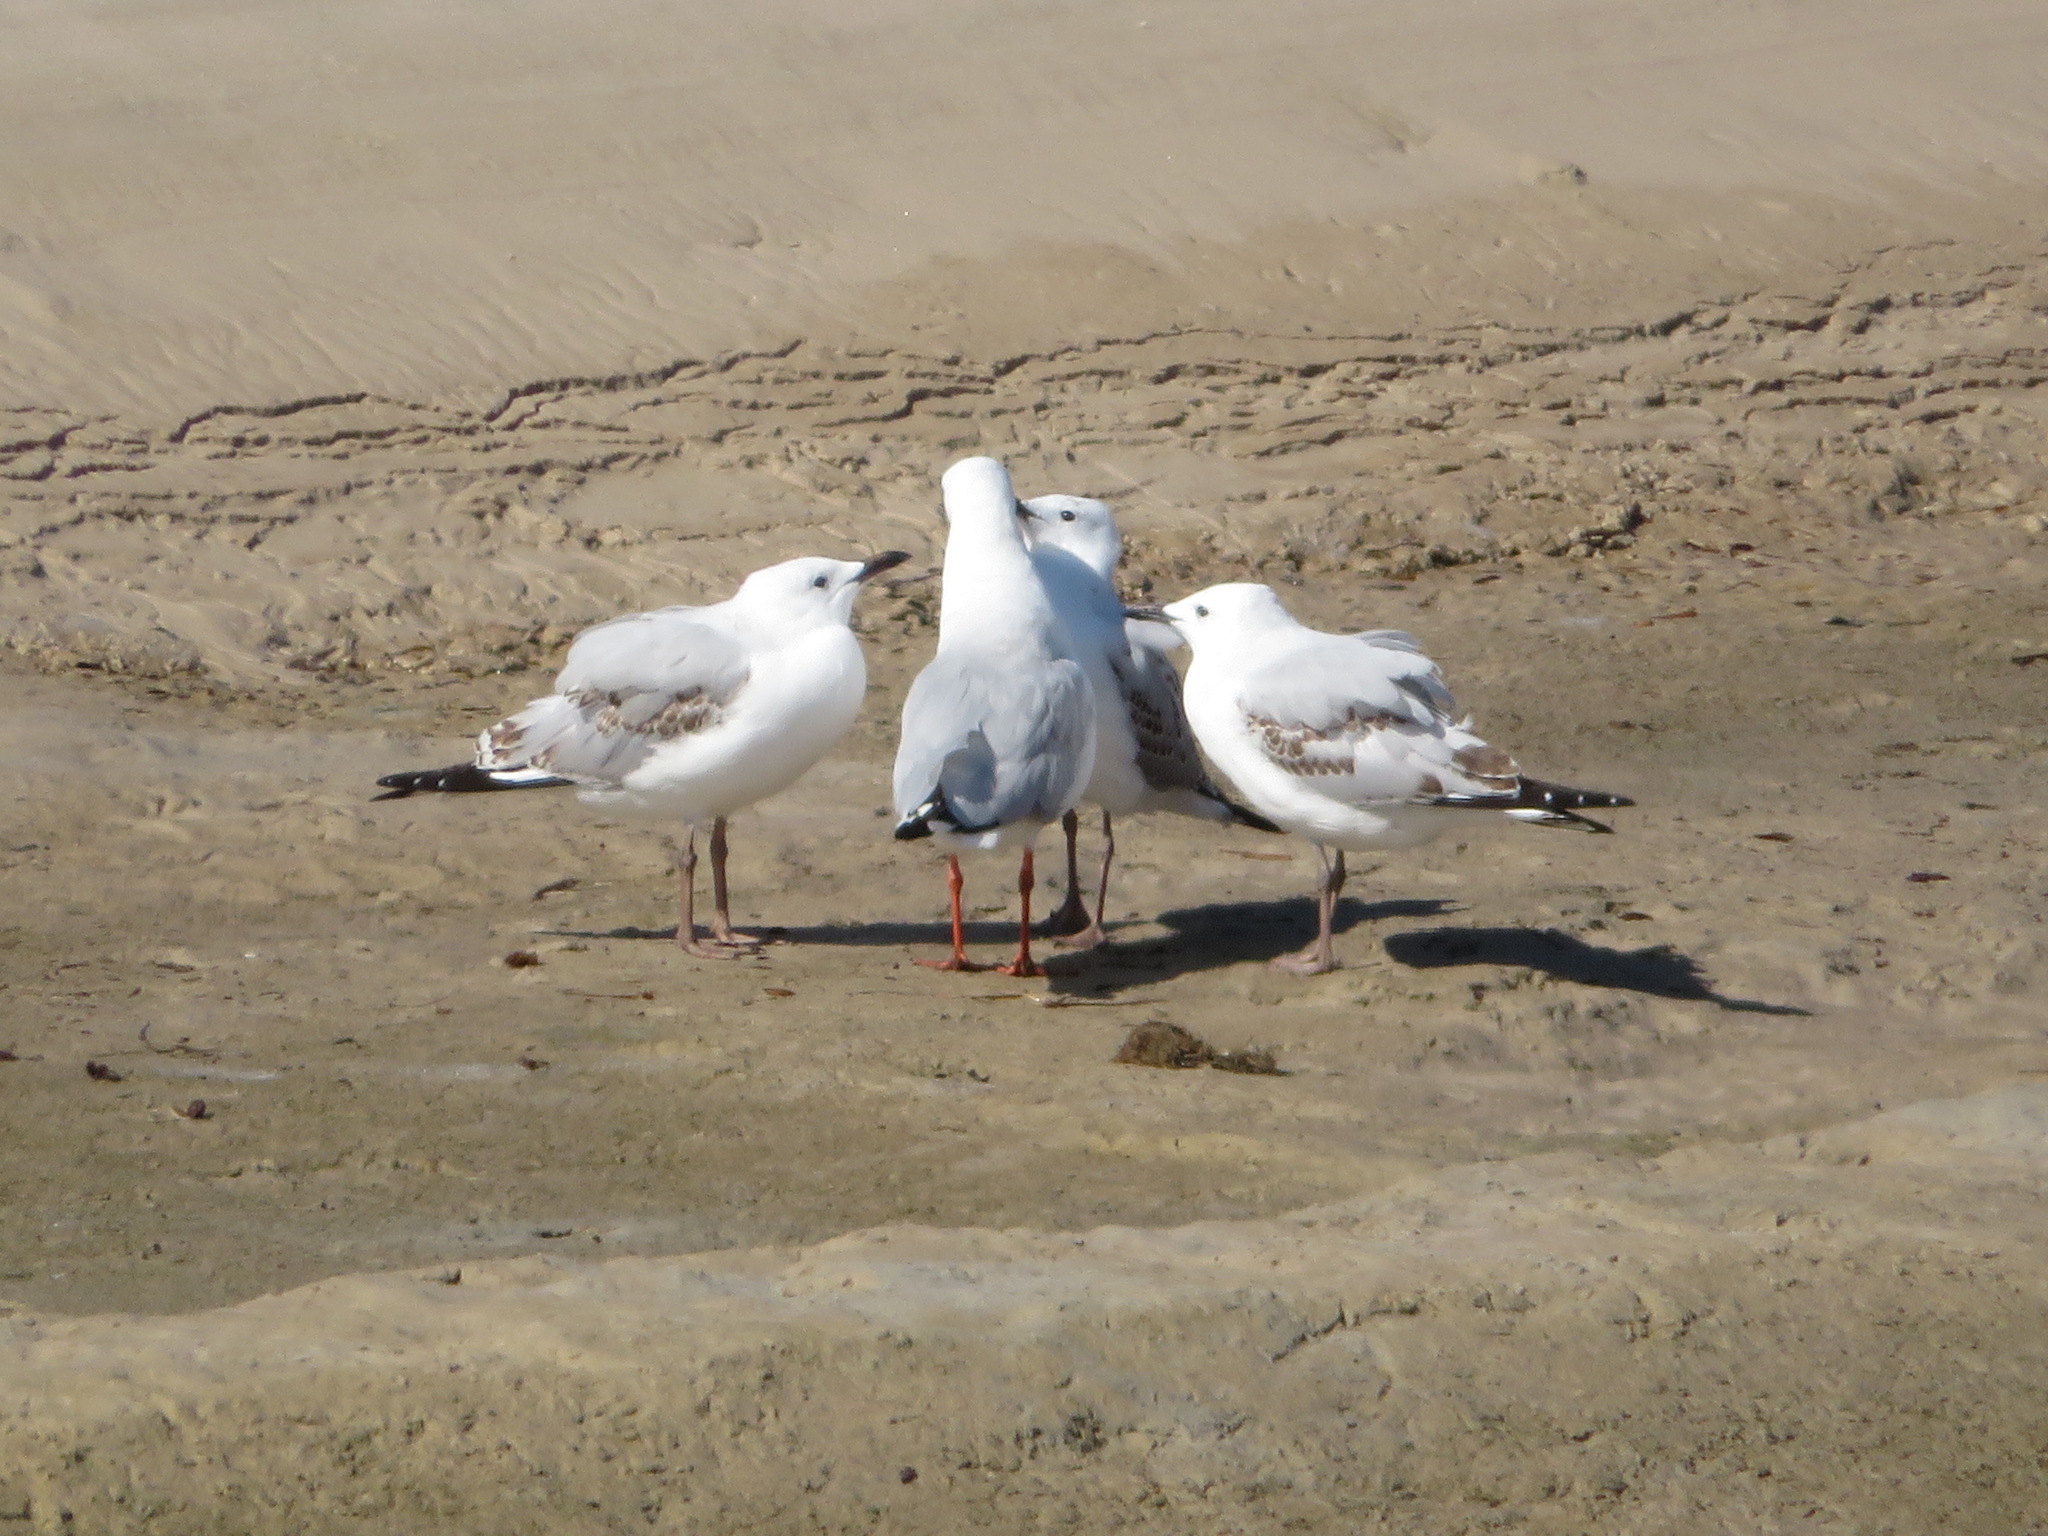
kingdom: Animalia
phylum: Chordata
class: Aves
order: Charadriiformes
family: Laridae
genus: Chroicocephalus
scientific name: Chroicocephalus novaehollandiae
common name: Silver gull
